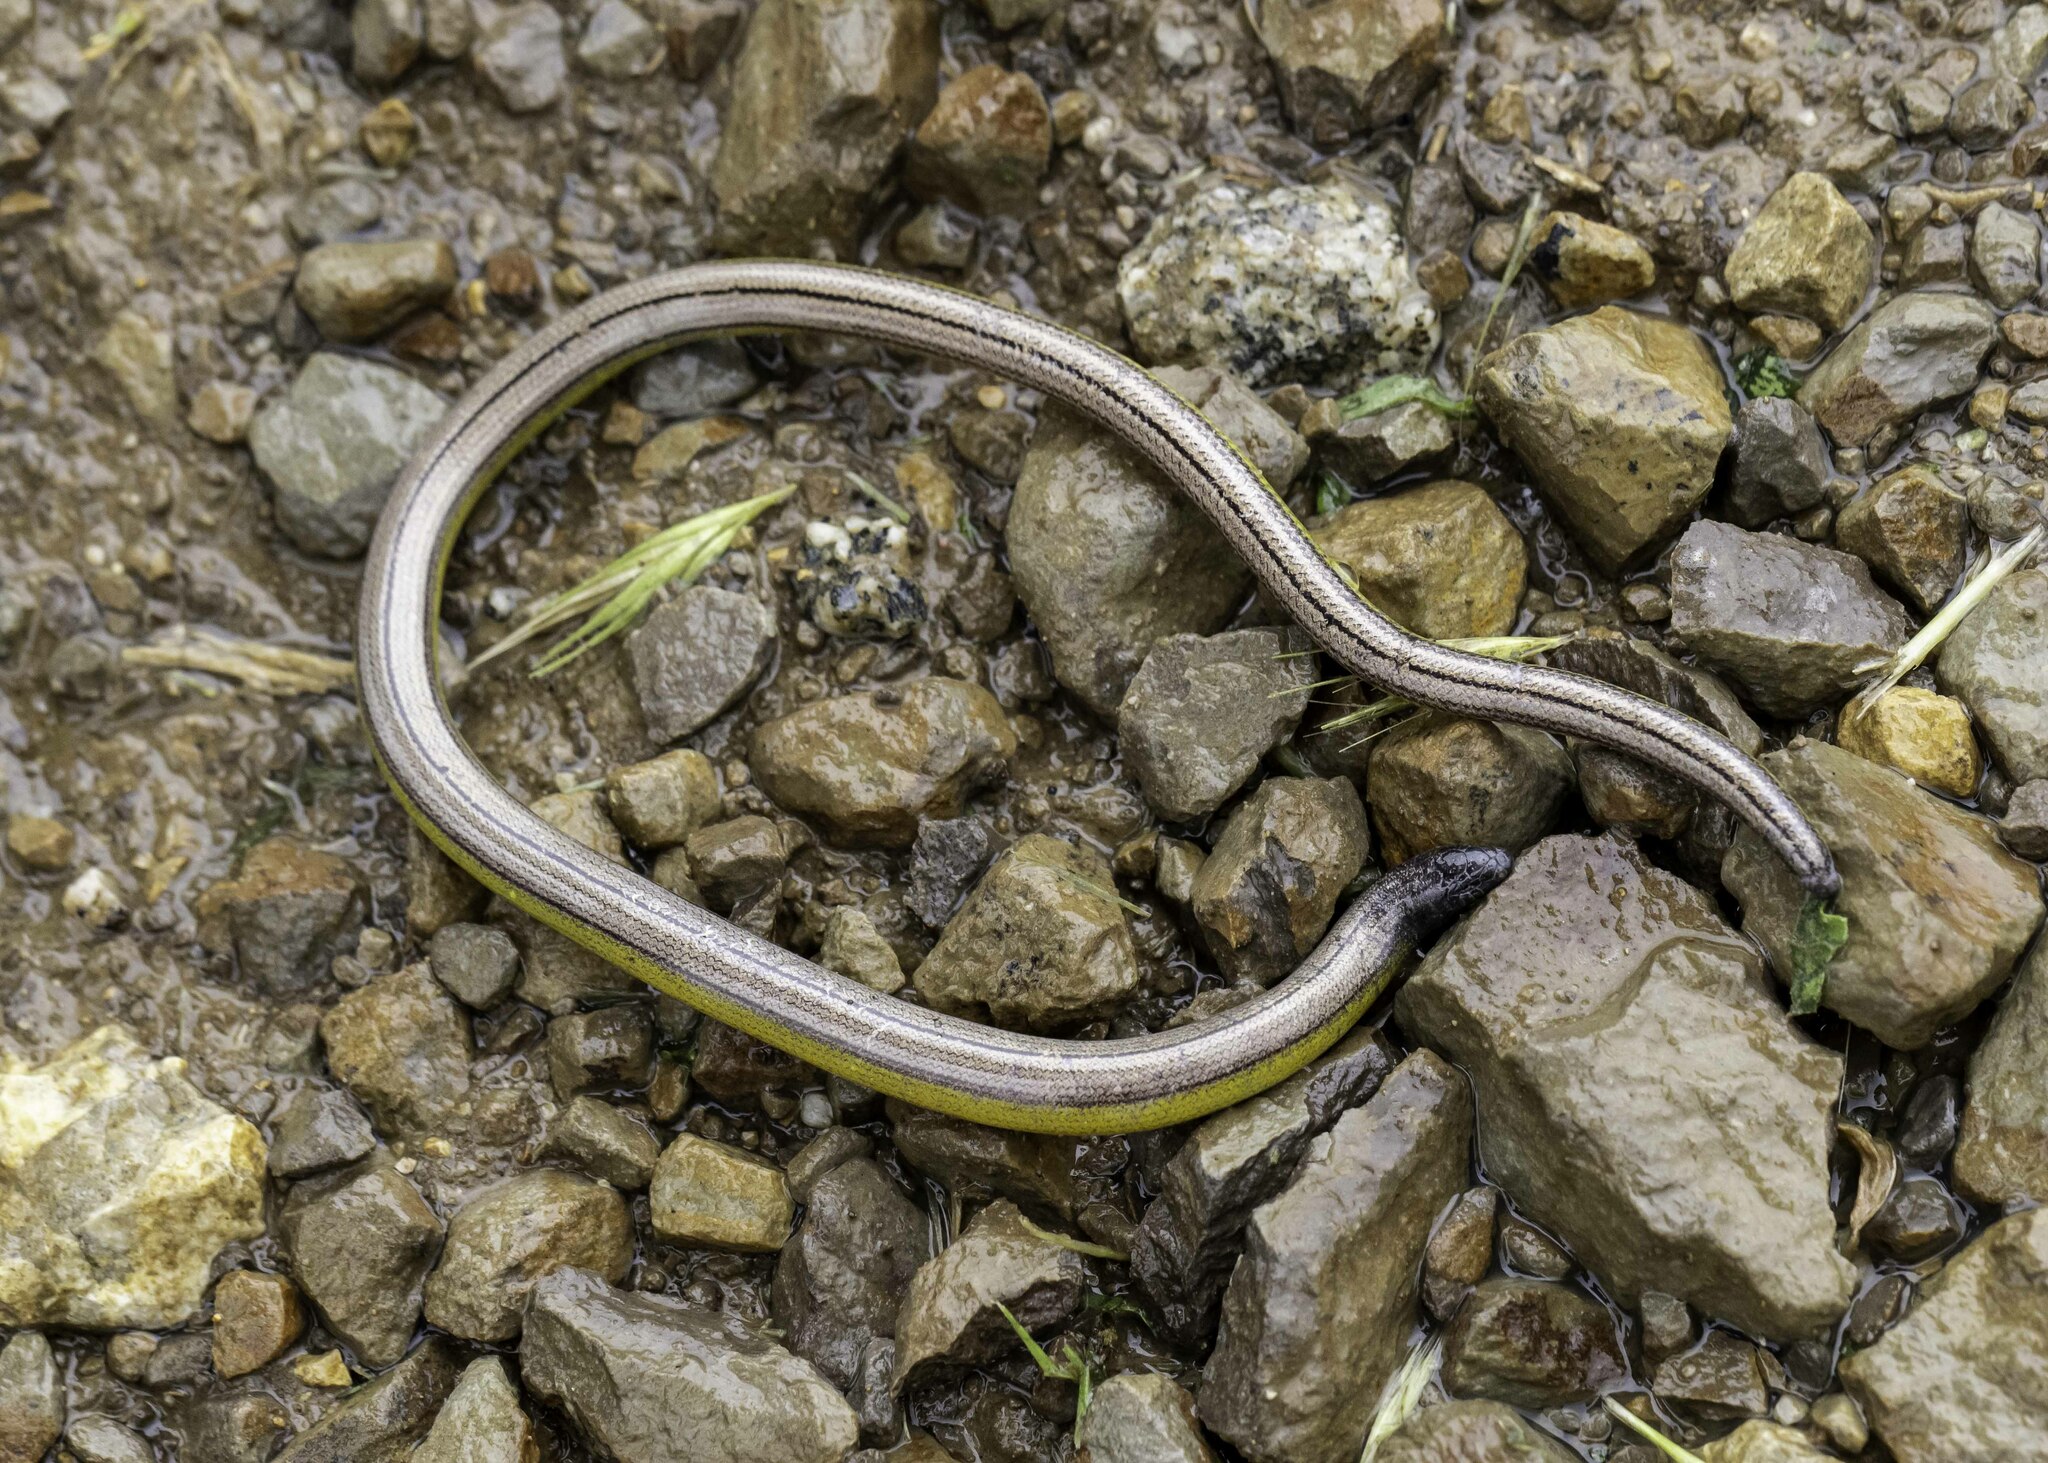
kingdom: Animalia
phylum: Chordata
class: Squamata
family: Anguidae
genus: Anniella
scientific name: Anniella grinnelli
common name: Bakersfield legless lizard
